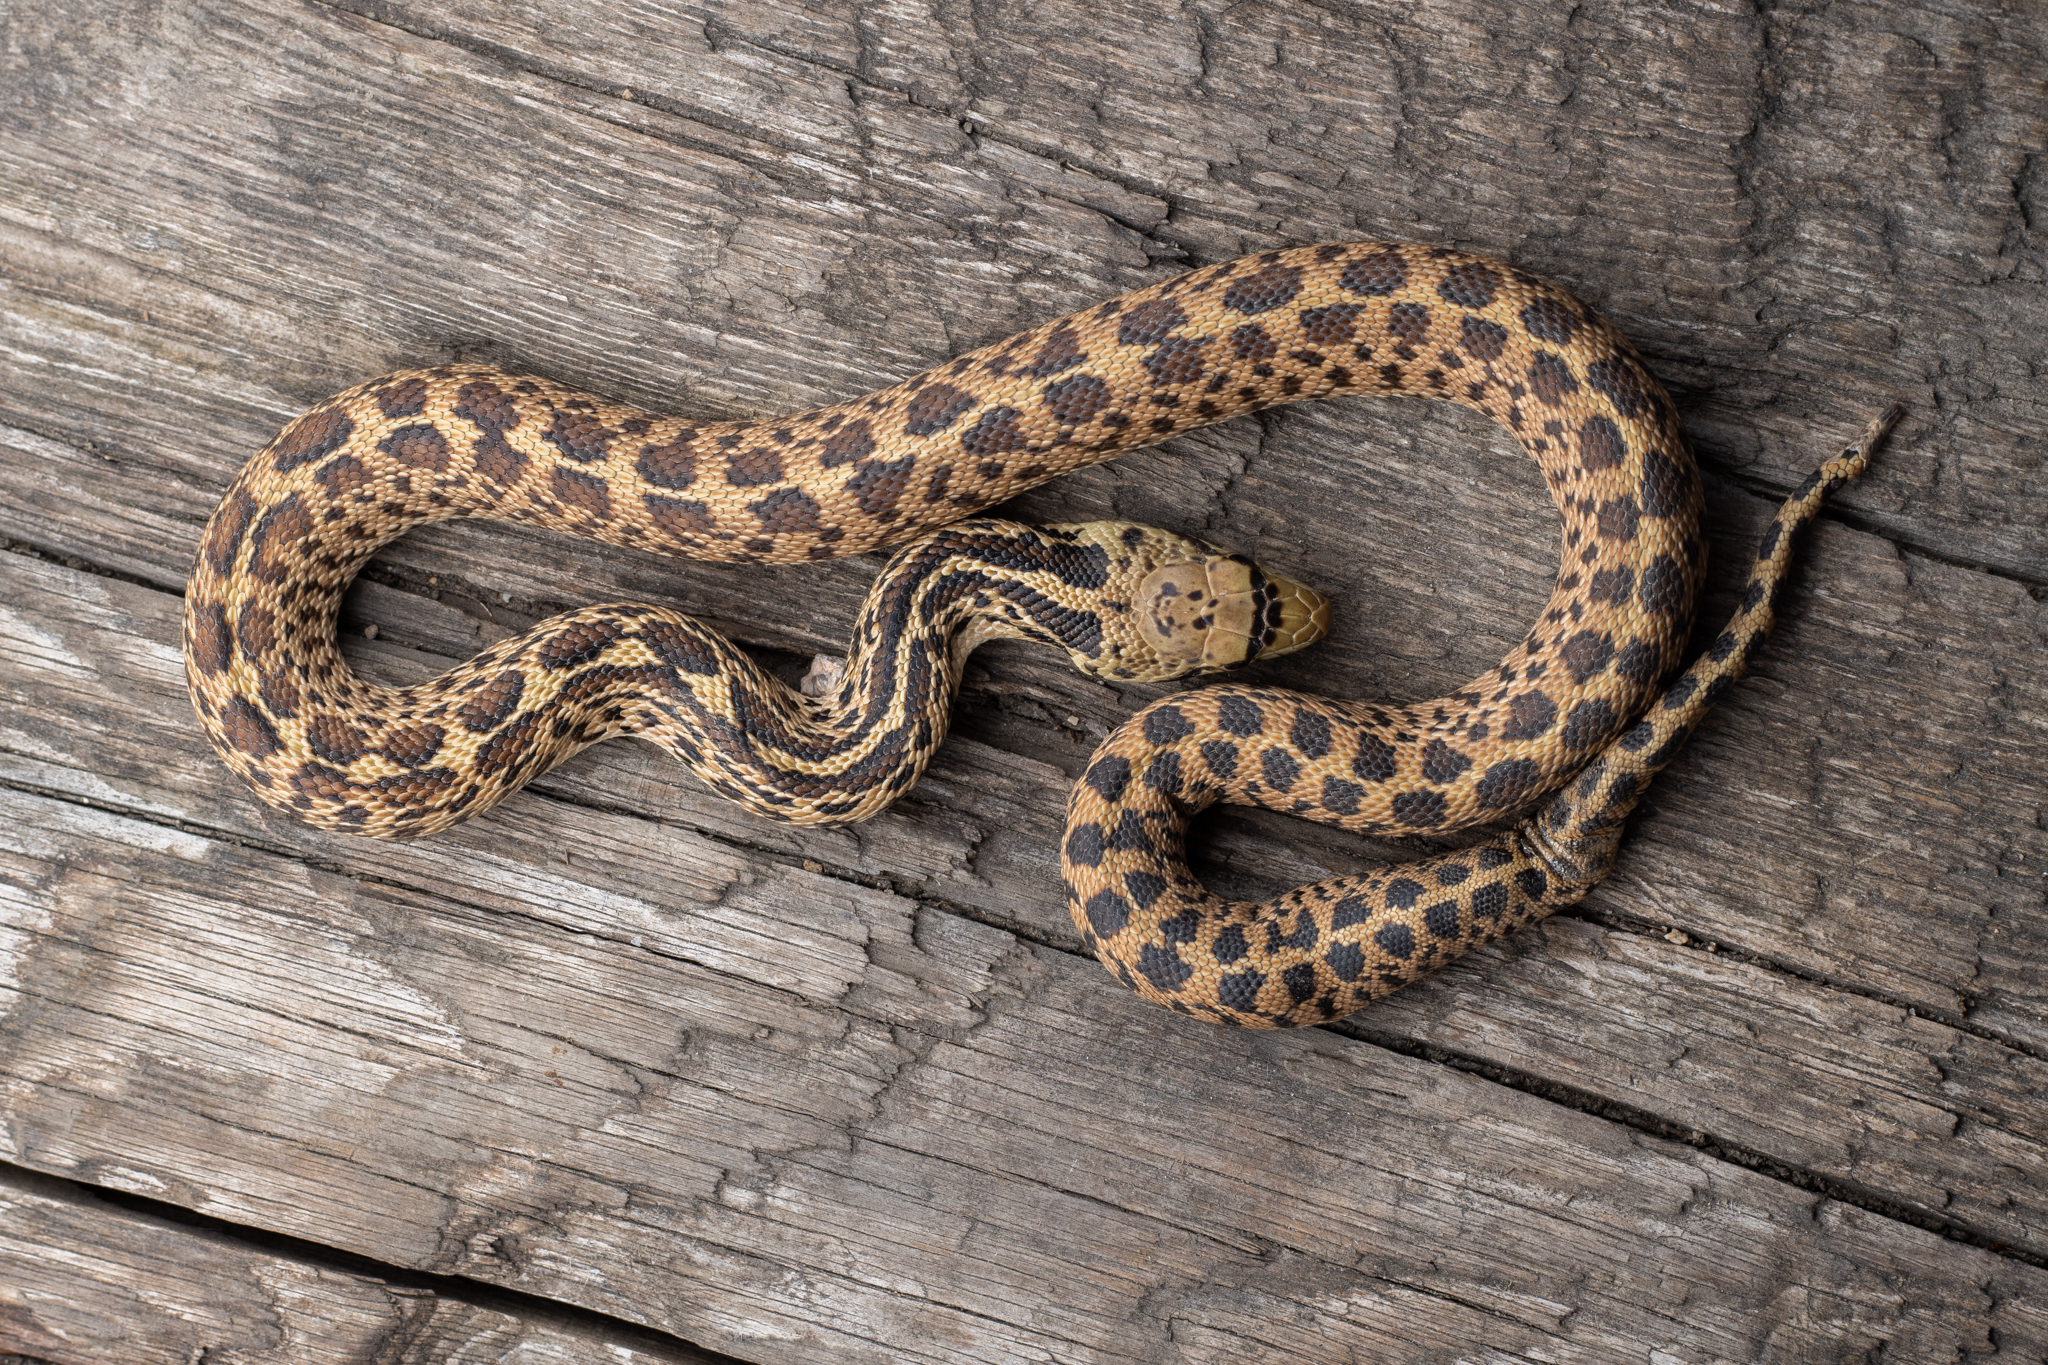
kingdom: Animalia
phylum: Chordata
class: Squamata
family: Colubridae
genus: Pituophis
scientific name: Pituophis catenifer
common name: Gopher snake
